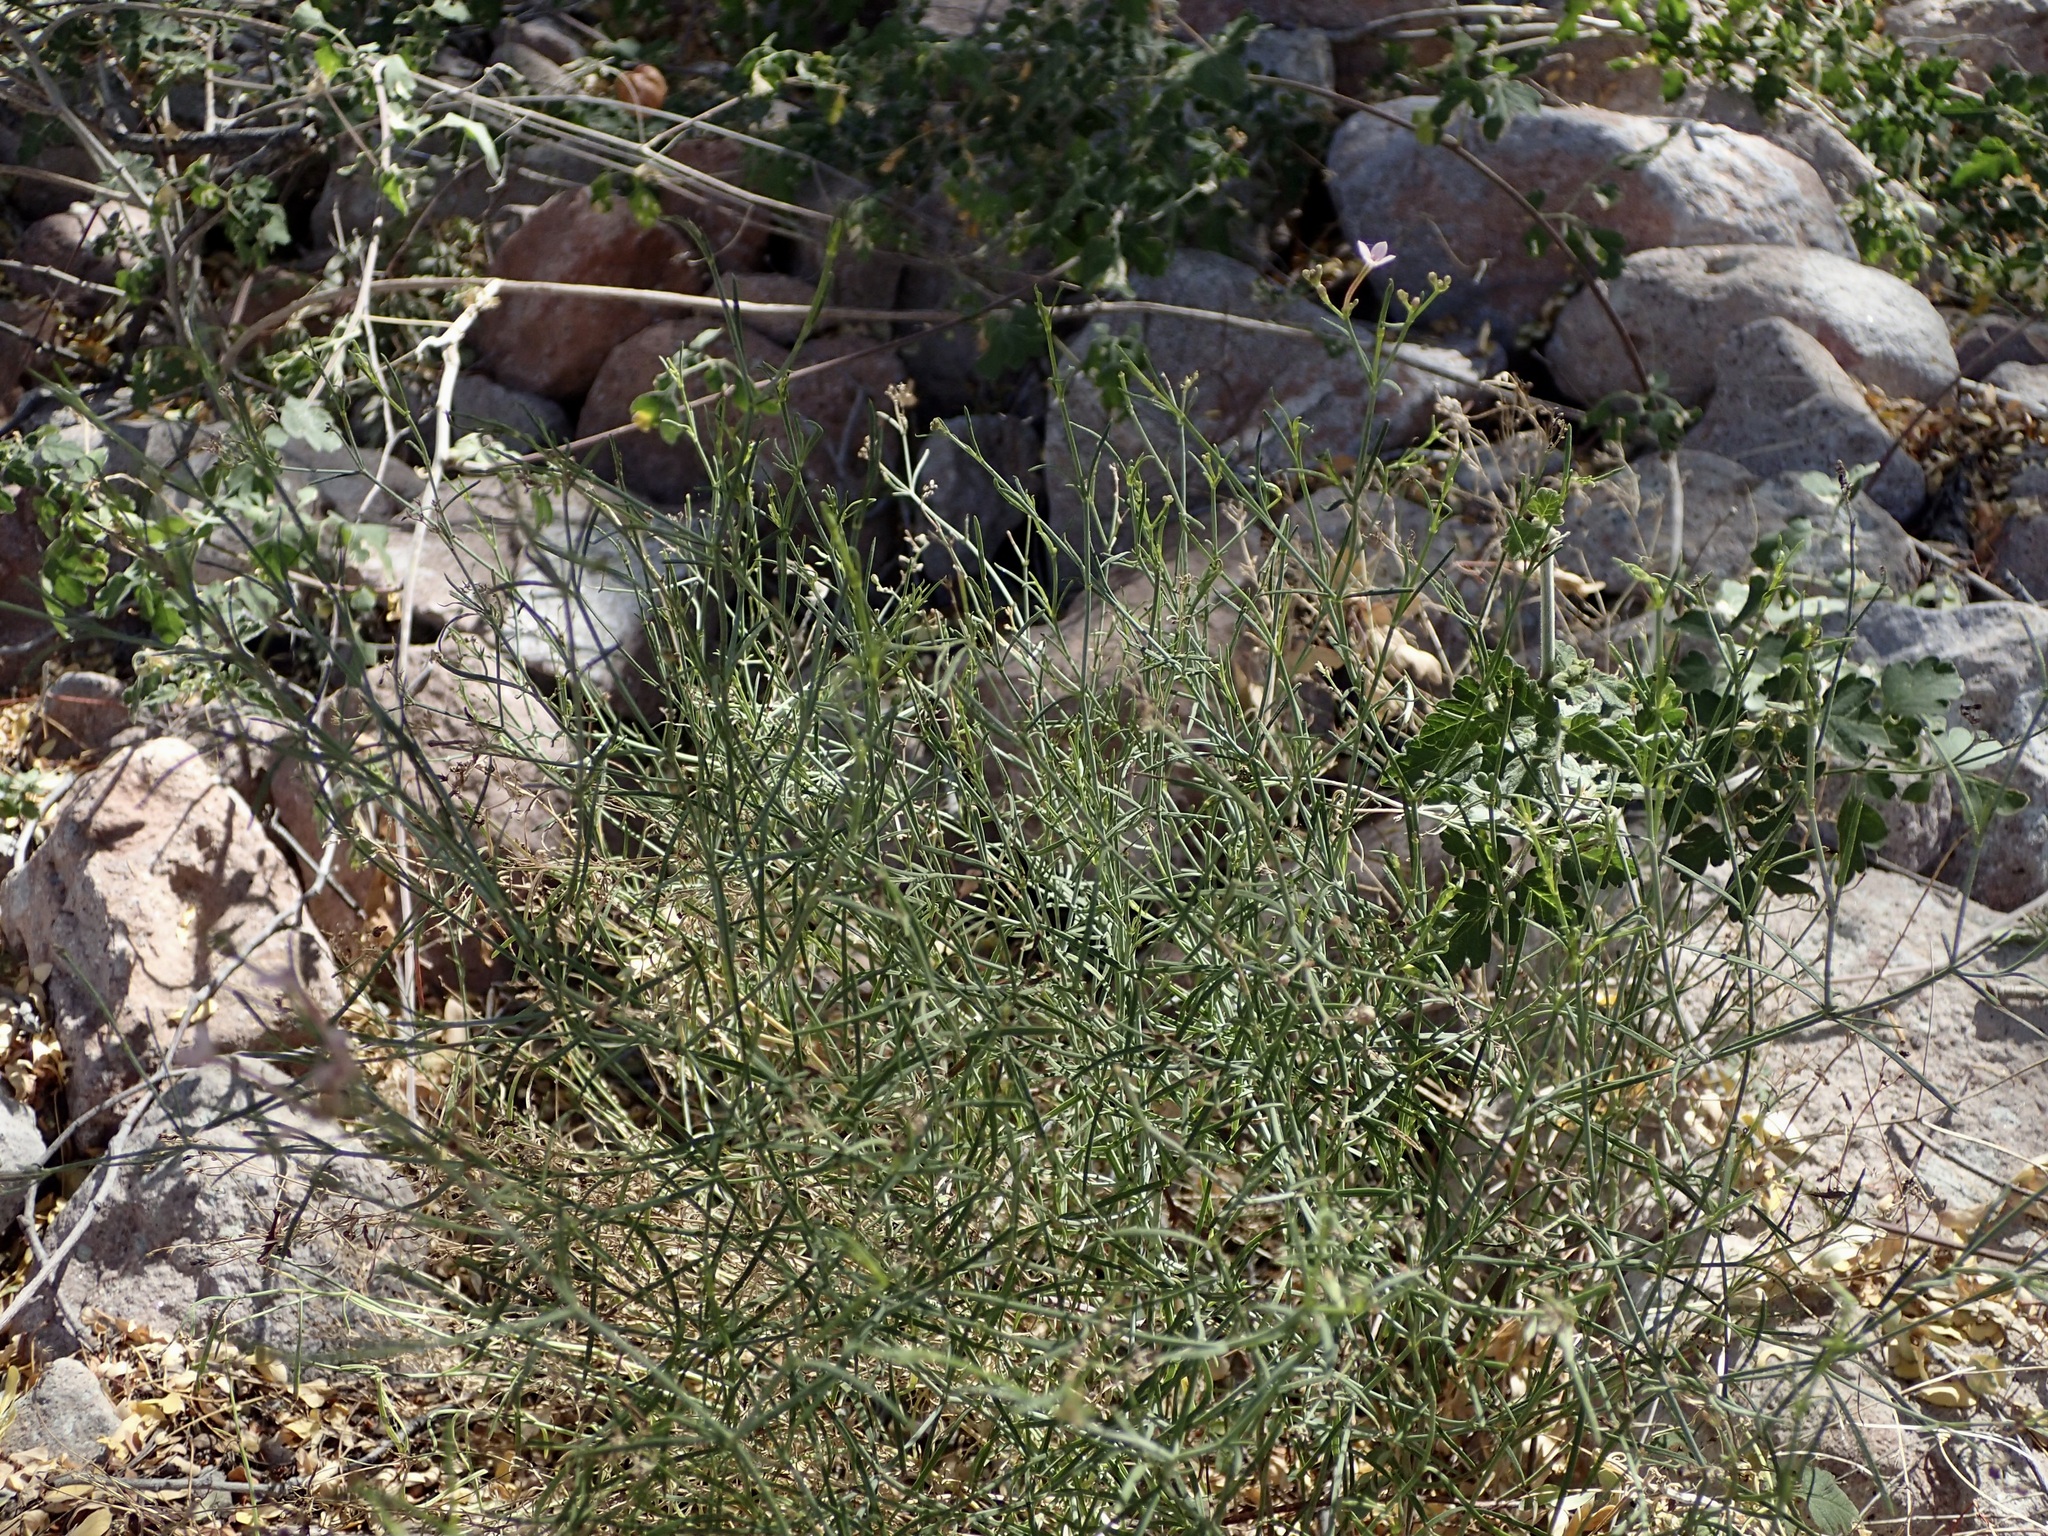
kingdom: Plantae
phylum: Tracheophyta
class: Magnoliopsida
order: Gentianales
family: Rubiaceae
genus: Stenotis
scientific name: Stenotis brevipes
